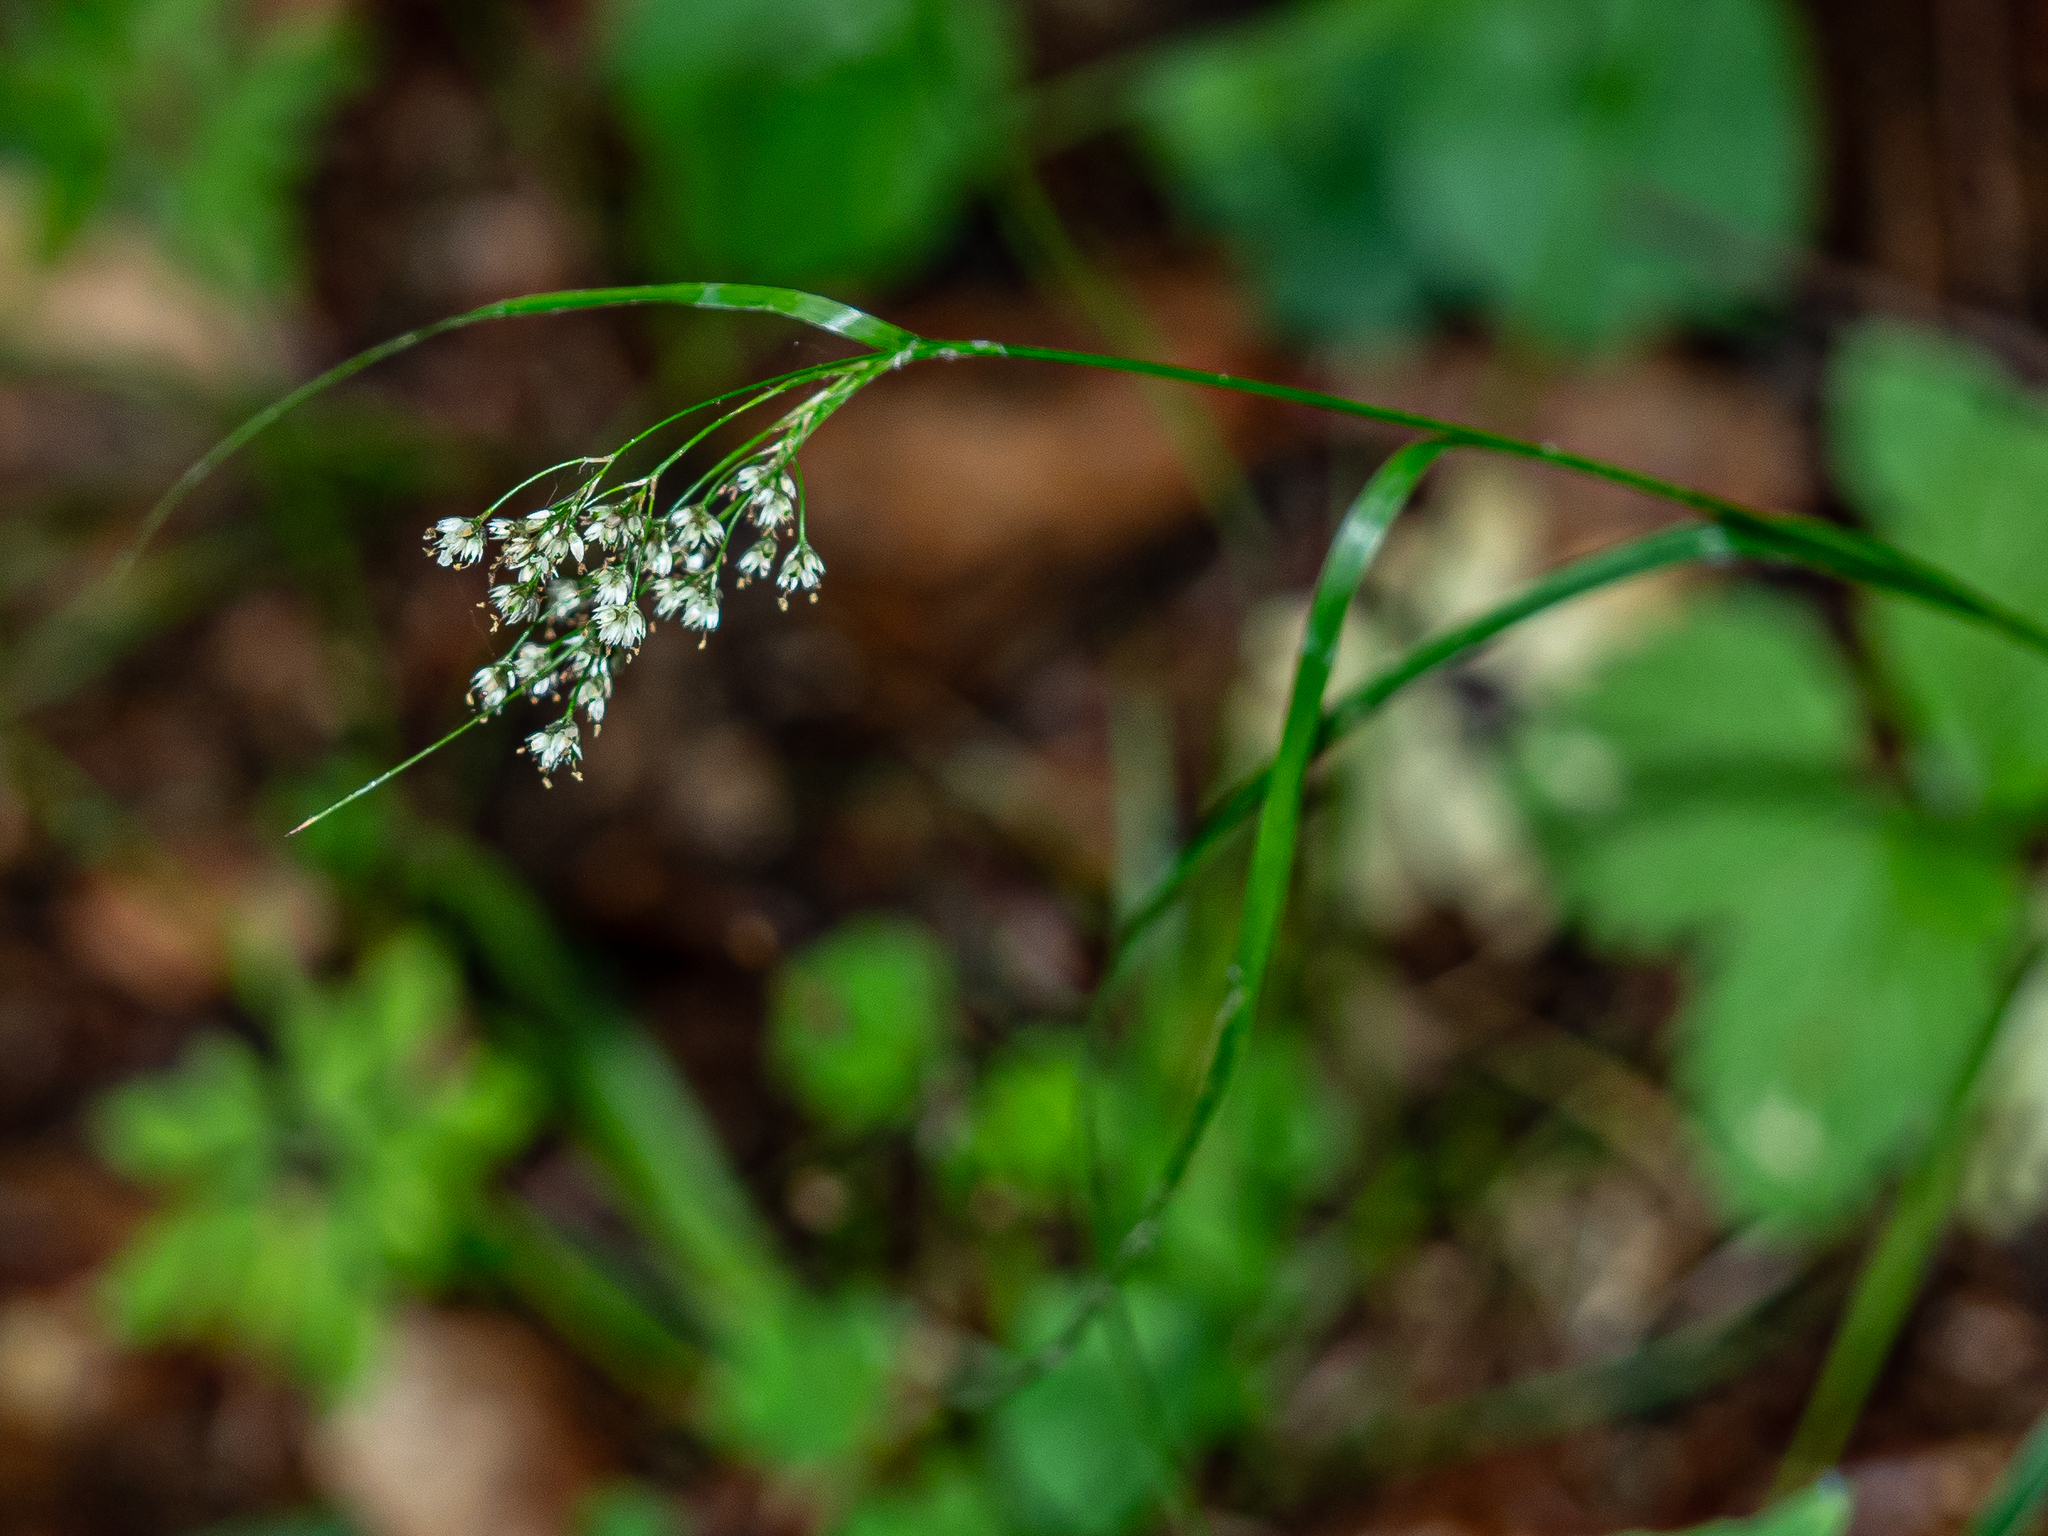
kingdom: Plantae
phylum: Tracheophyta
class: Liliopsida
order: Poales
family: Juncaceae
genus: Luzula
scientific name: Luzula luzuloides
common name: White wood-rush
